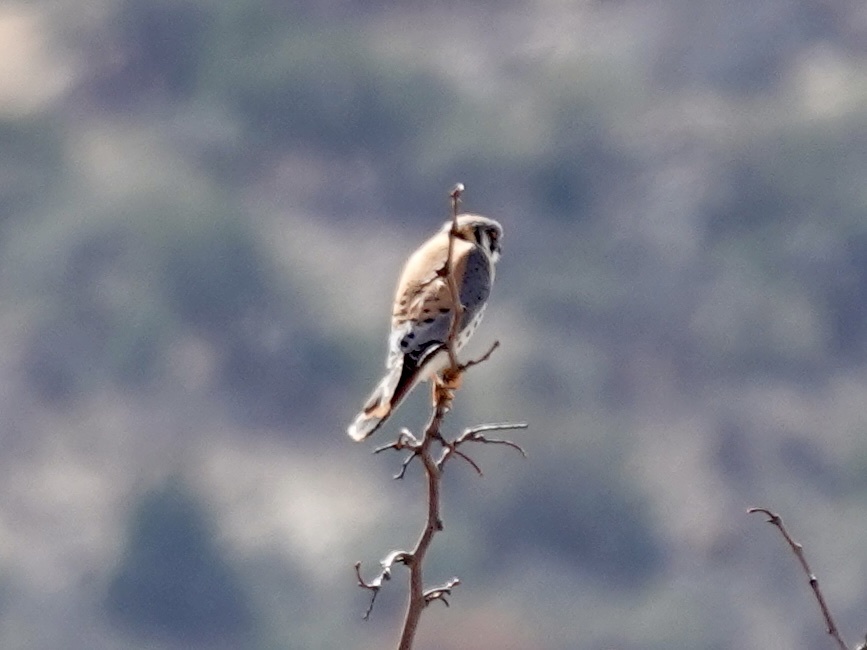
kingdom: Animalia
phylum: Chordata
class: Aves
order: Falconiformes
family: Falconidae
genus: Falco
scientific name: Falco sparverius
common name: American kestrel
